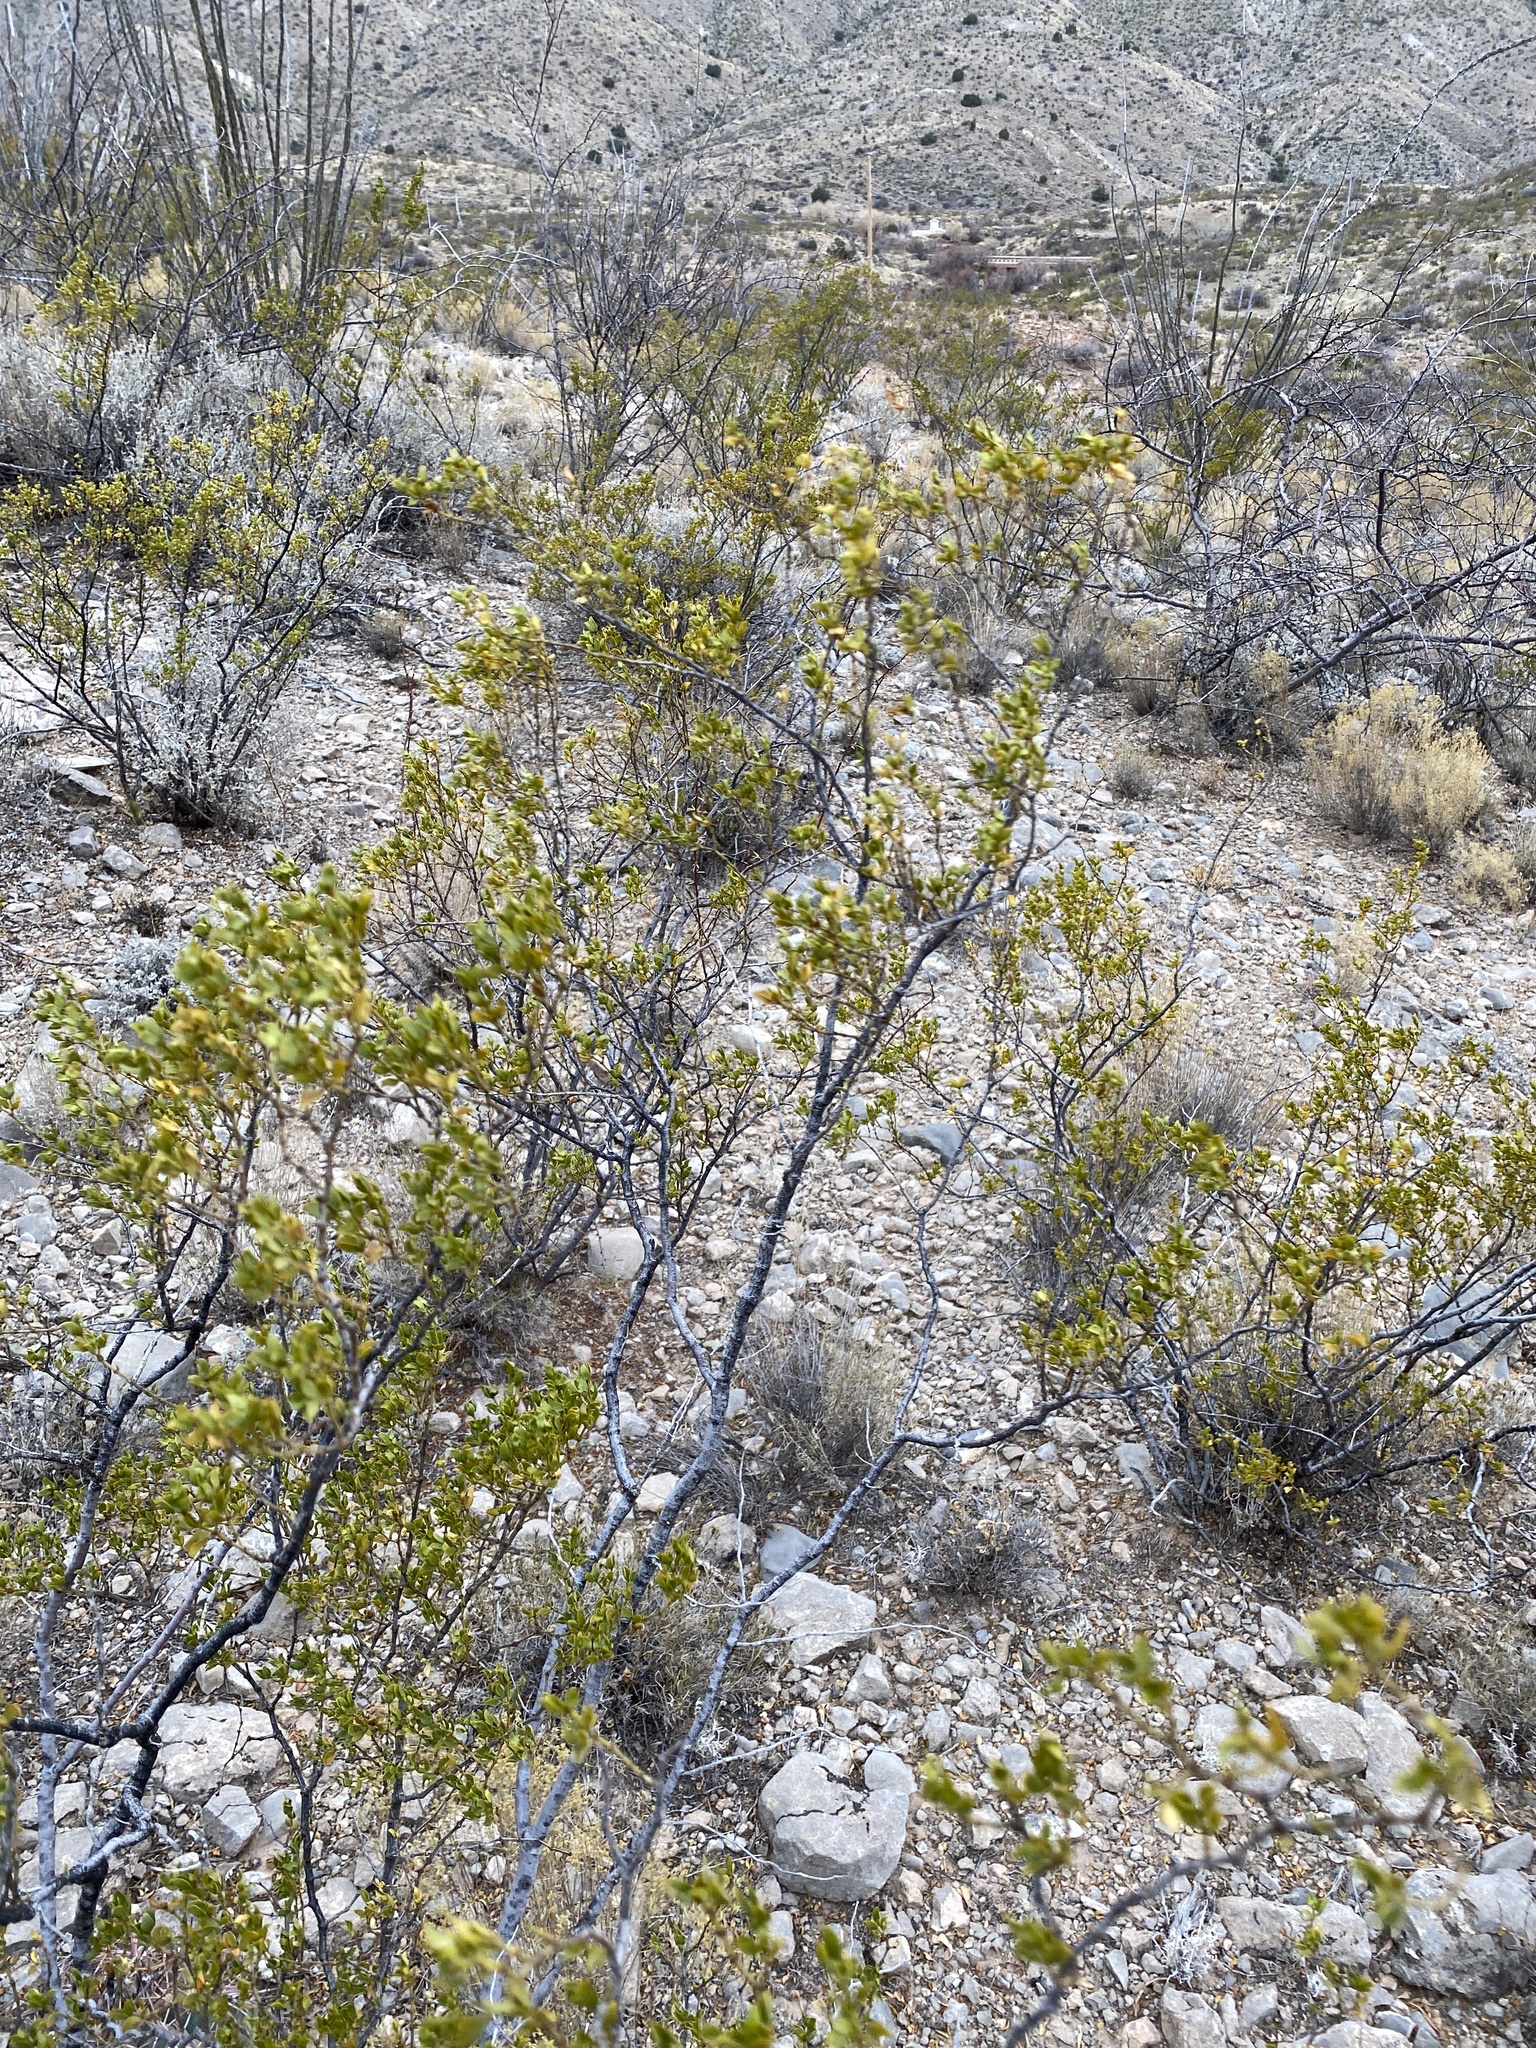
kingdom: Plantae
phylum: Tracheophyta
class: Magnoliopsida
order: Zygophyllales
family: Zygophyllaceae
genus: Larrea
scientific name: Larrea tridentata
